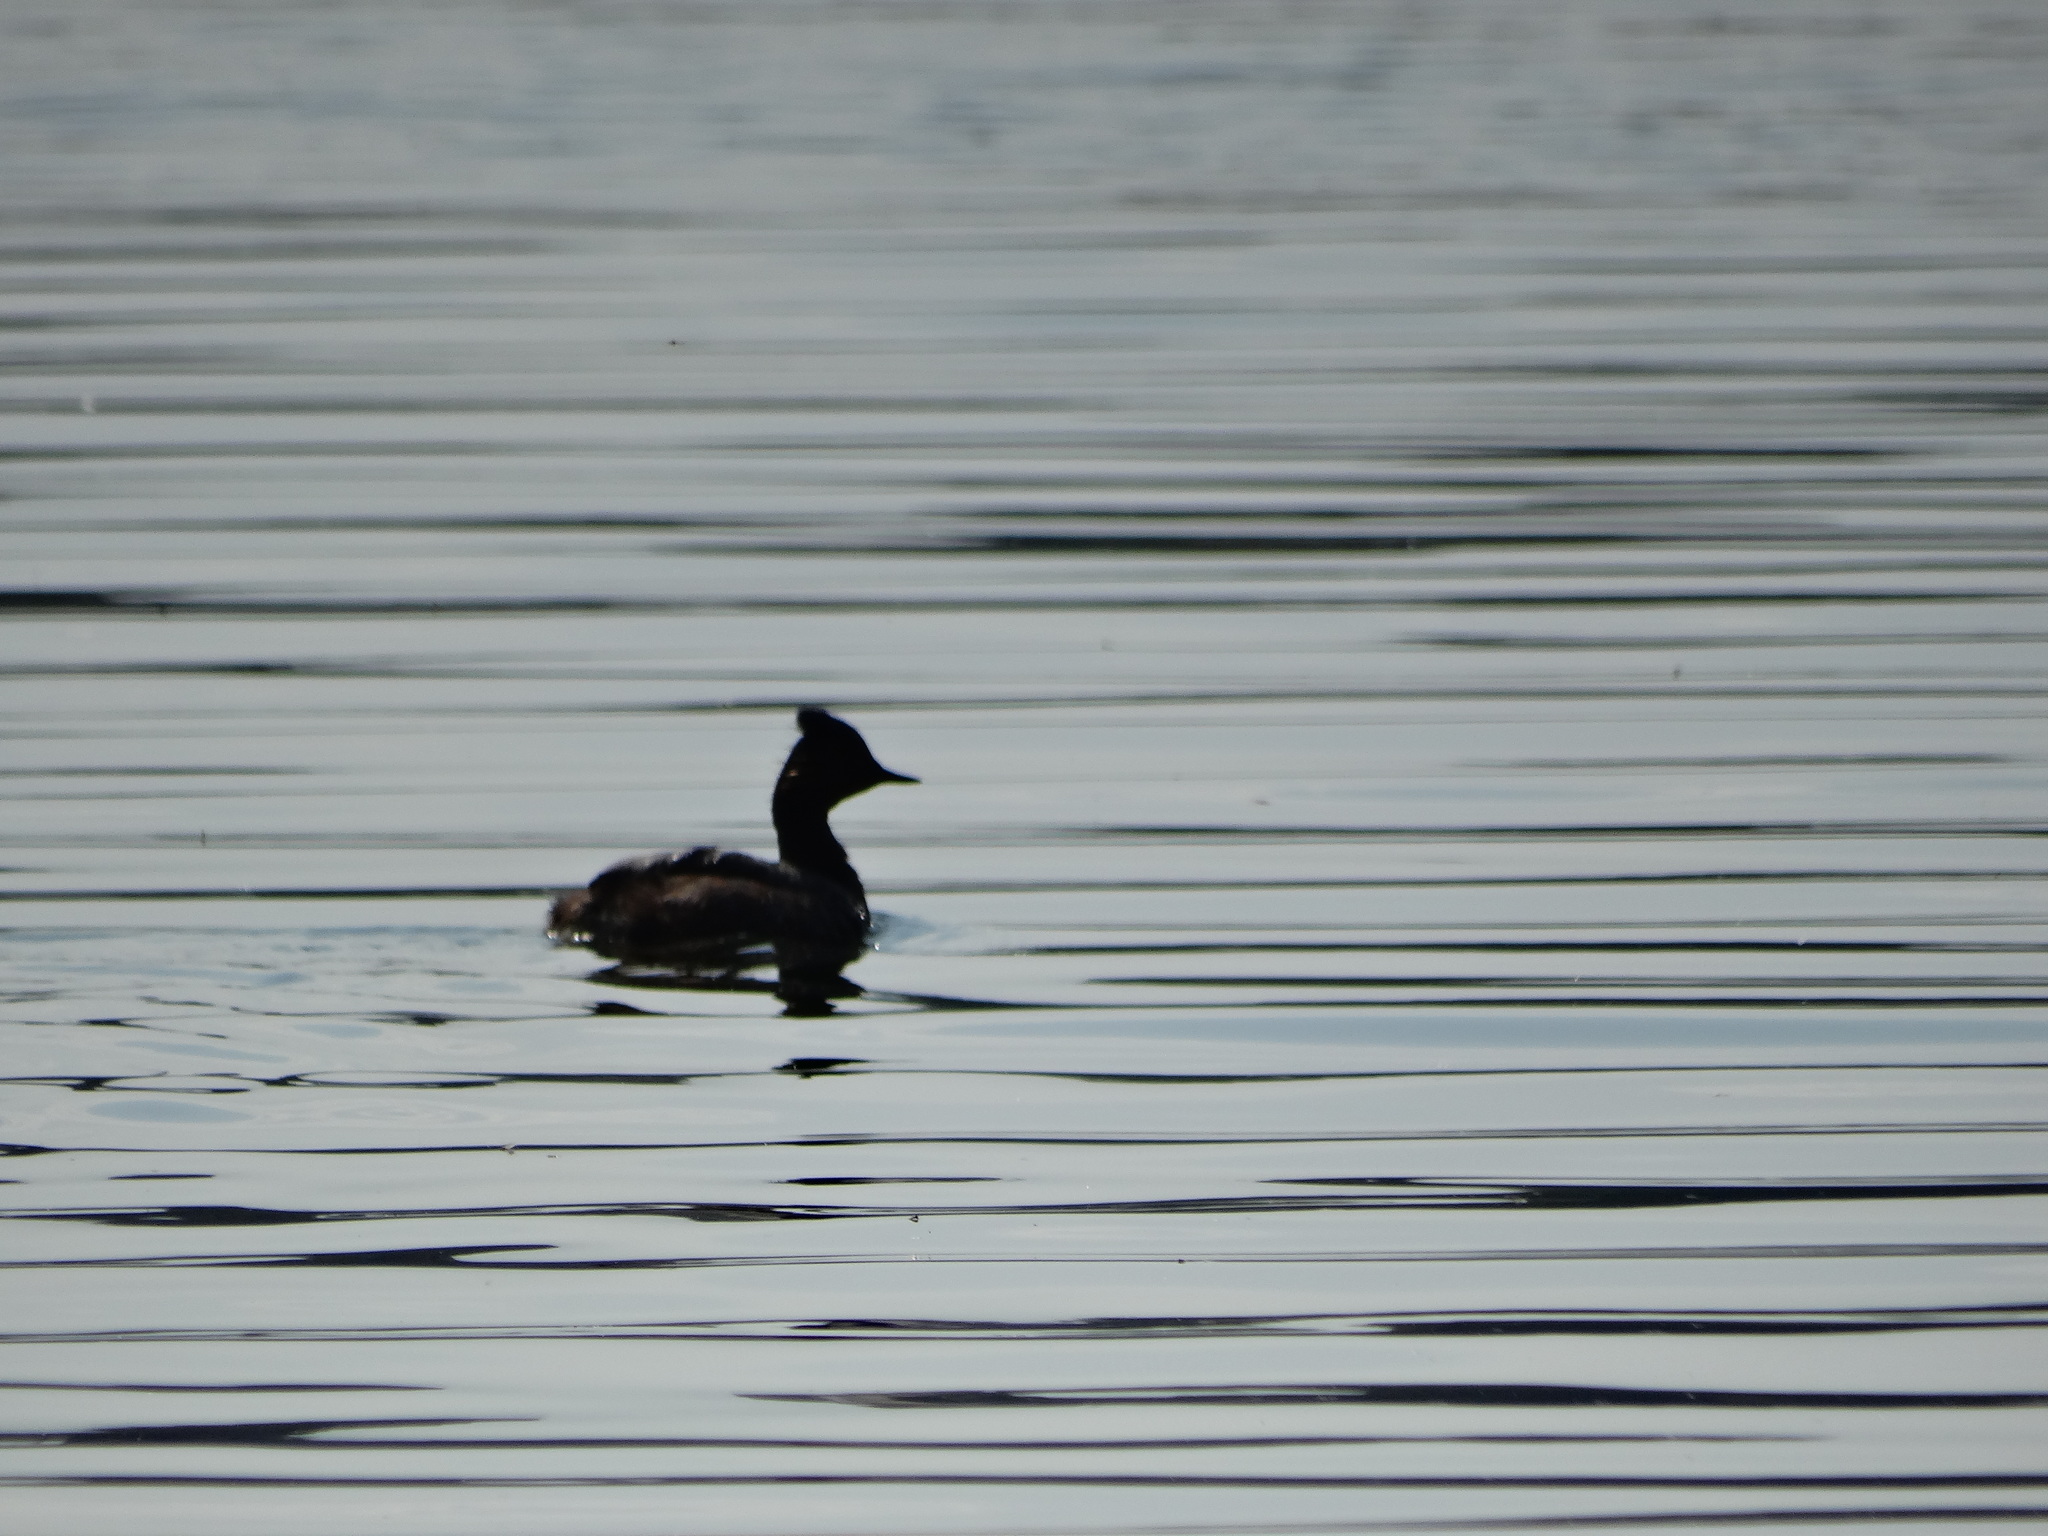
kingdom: Animalia
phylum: Chordata
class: Aves
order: Podicipediformes
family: Podicipedidae
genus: Podiceps
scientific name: Podiceps nigricollis
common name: Black-necked grebe
